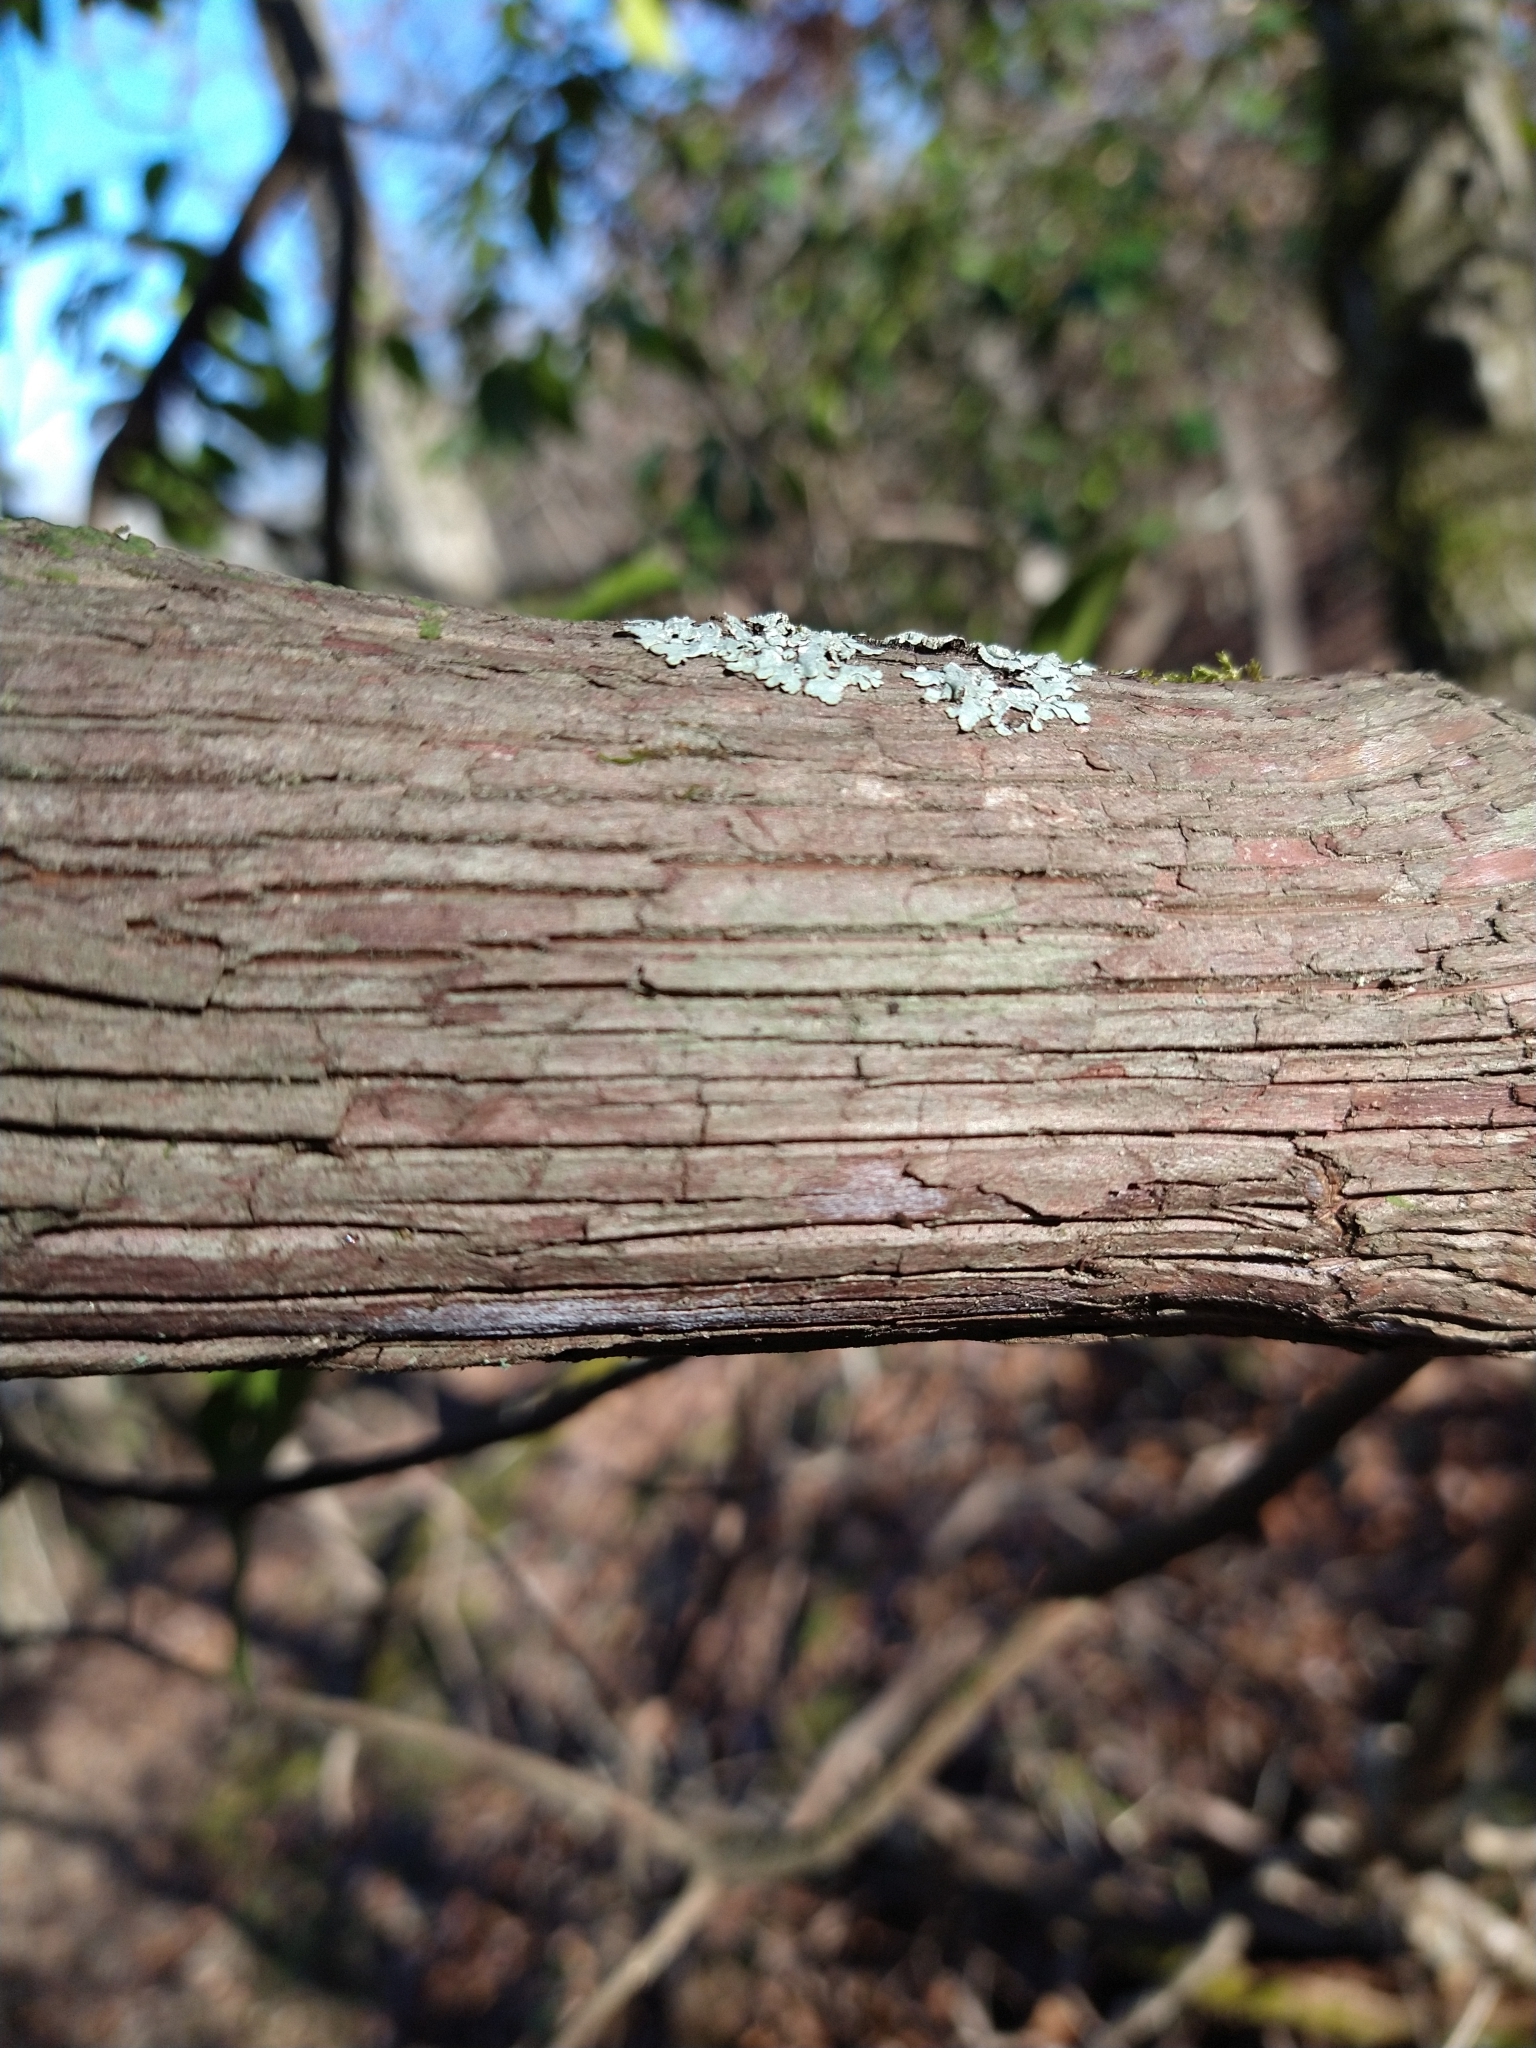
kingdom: Plantae
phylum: Tracheophyta
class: Magnoliopsida
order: Ericales
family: Ericaceae
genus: Kalmia
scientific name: Kalmia latifolia
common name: Mountain-laurel
